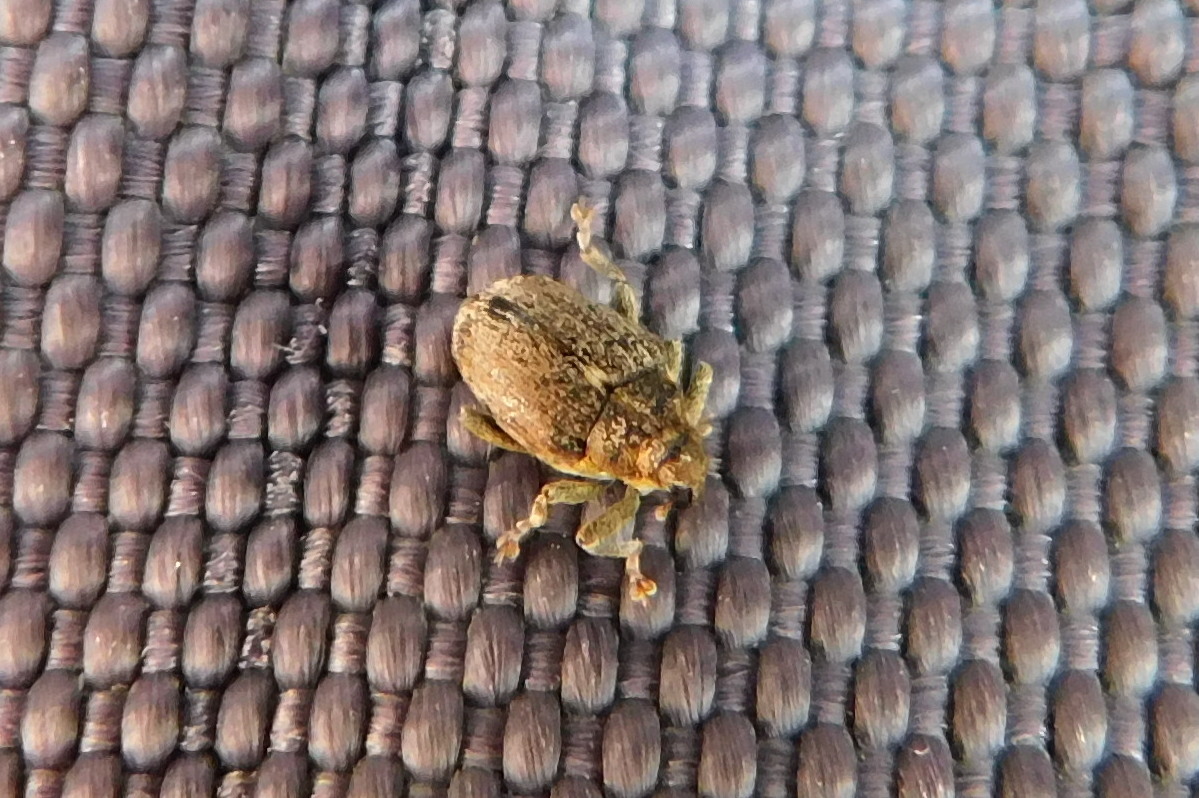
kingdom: Animalia
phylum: Arthropoda
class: Insecta
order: Coleoptera
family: Curculionidae
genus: Ceutorhynchus
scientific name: Ceutorhynchus pallidactylus
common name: Cabbage stem weavil
